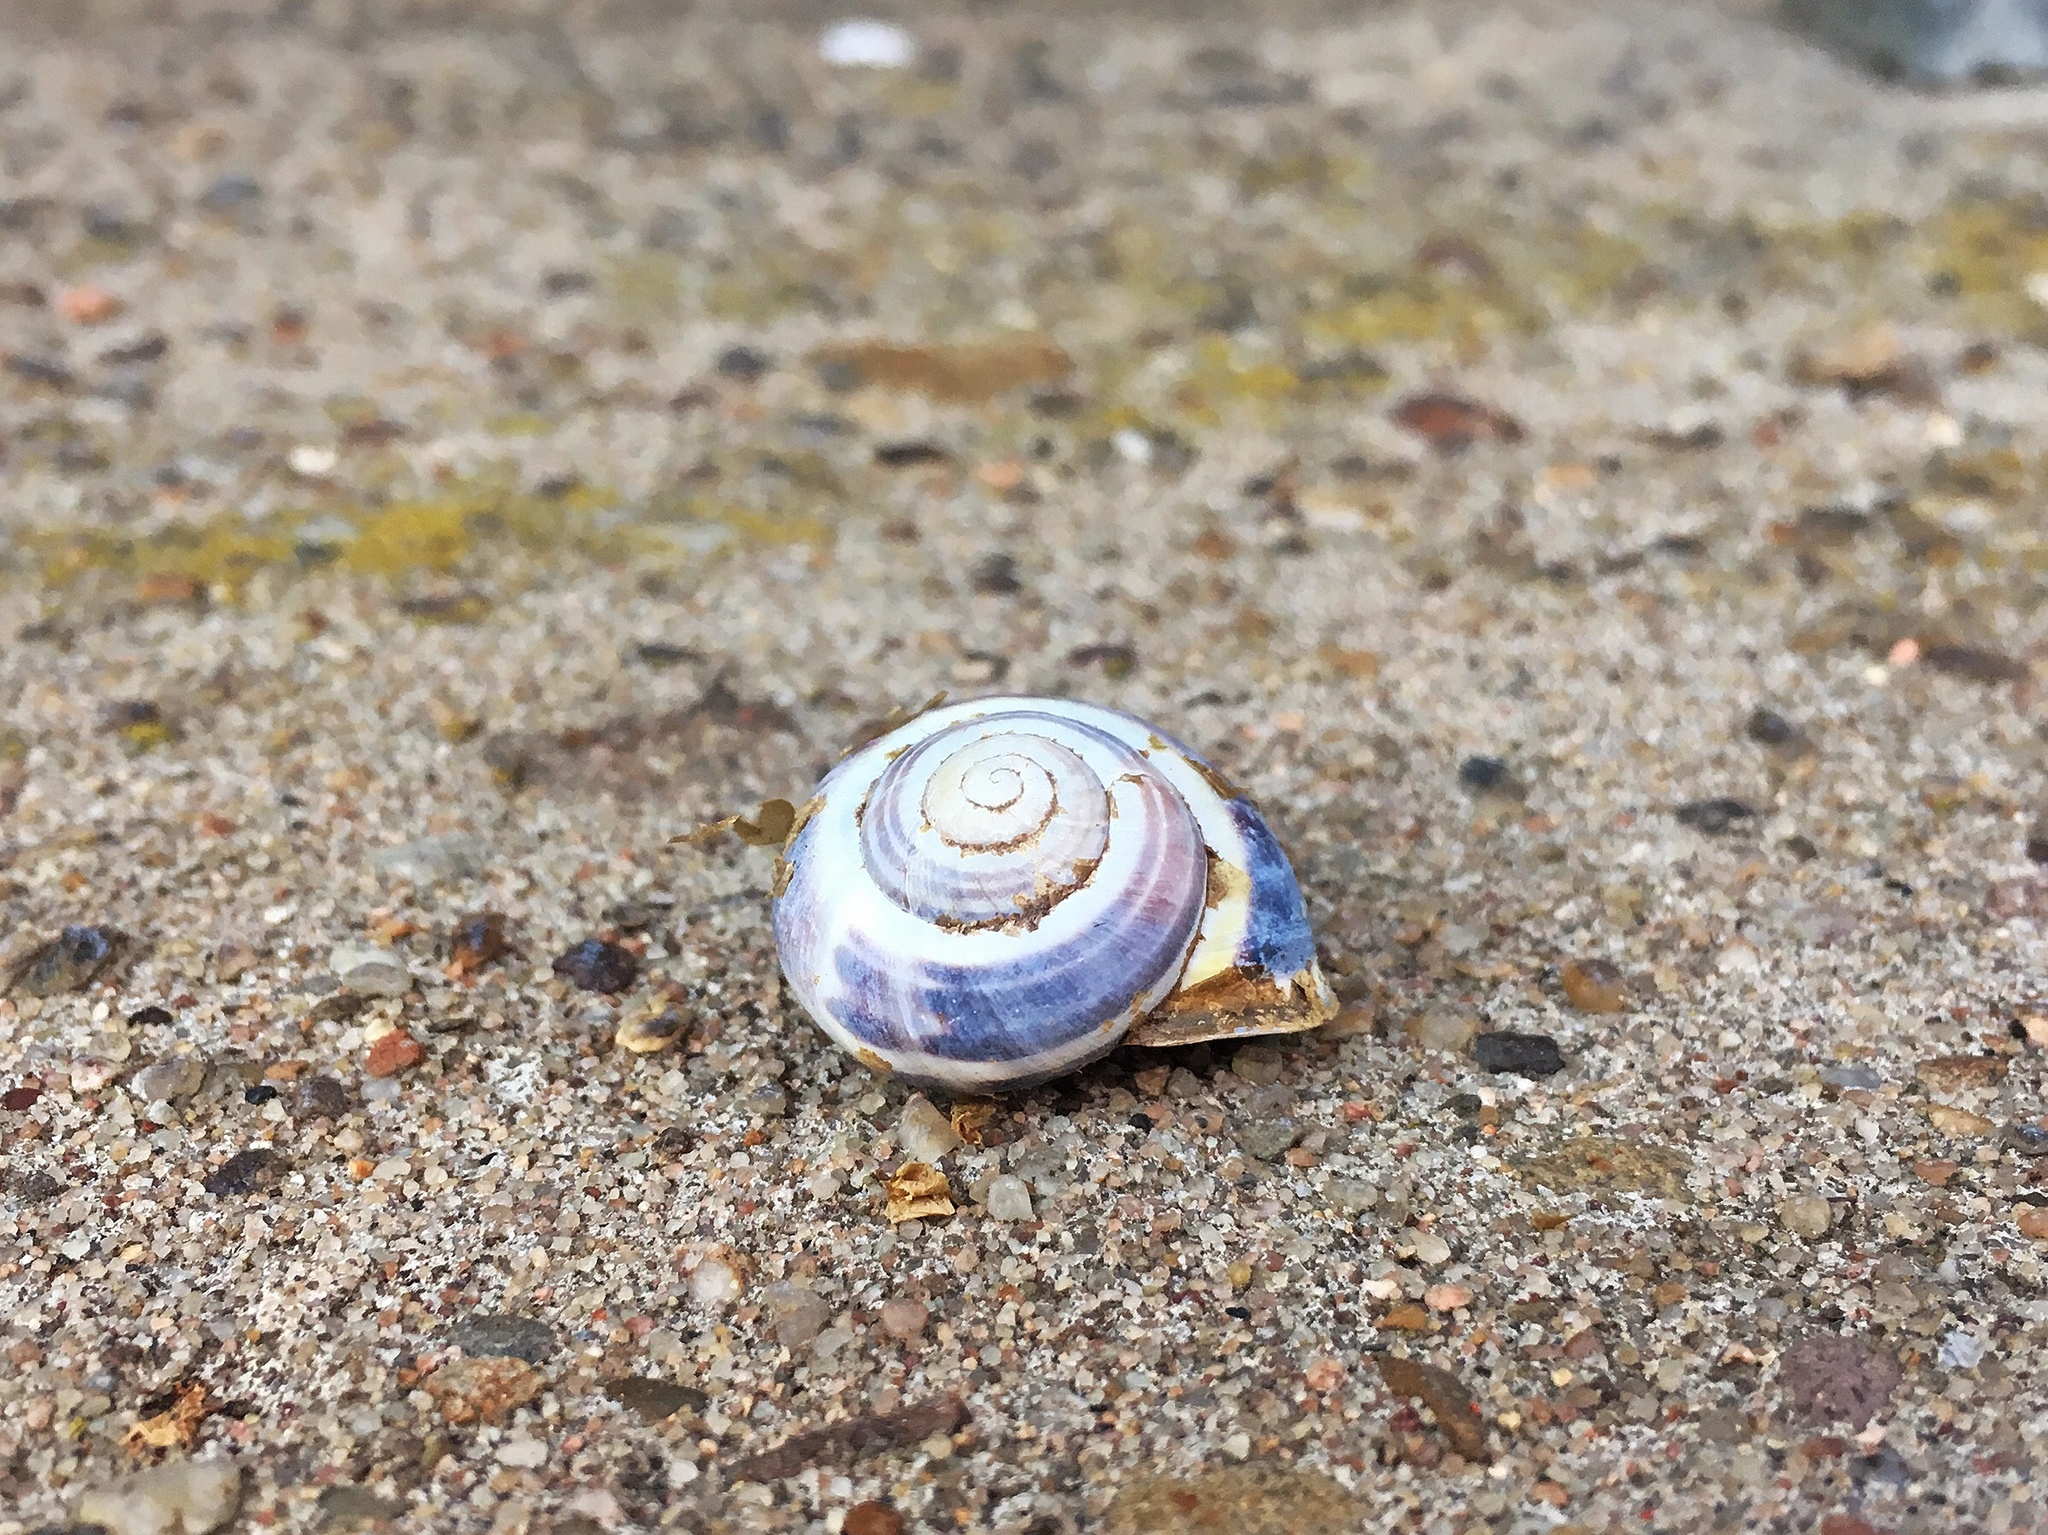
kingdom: Animalia
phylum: Mollusca
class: Gastropoda
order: Stylommatophora
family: Helicidae
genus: Cepaea
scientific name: Cepaea nemoralis
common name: Grovesnail
